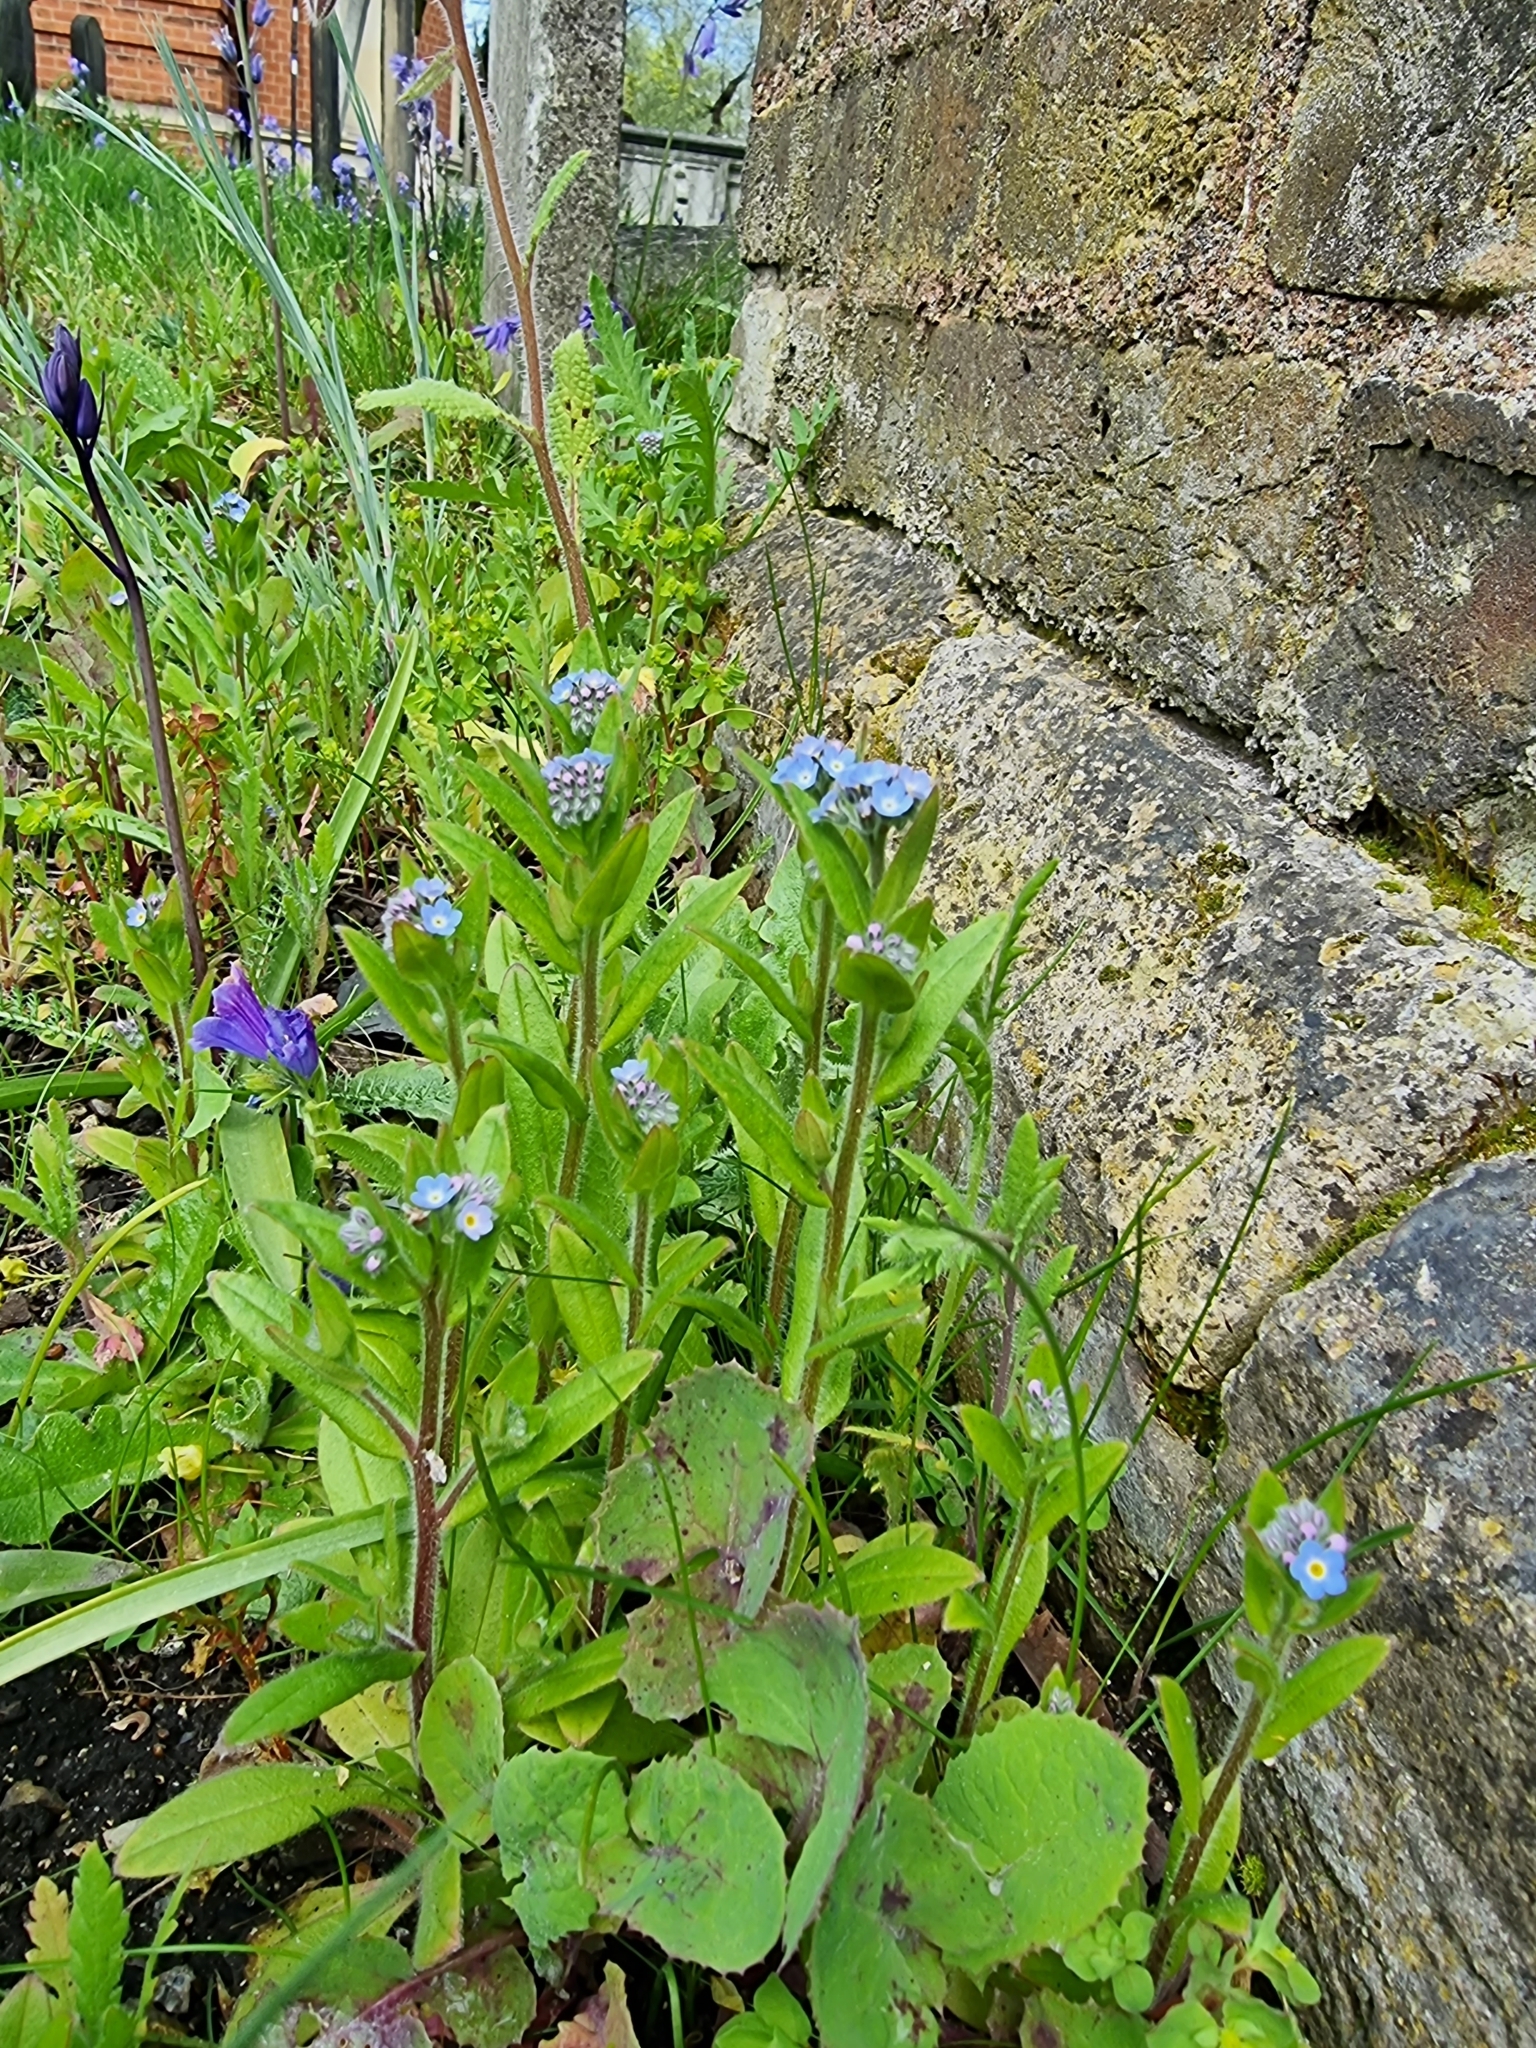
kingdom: Plantae
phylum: Tracheophyta
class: Magnoliopsida
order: Boraginales
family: Boraginaceae
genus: Myosotis
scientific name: Myosotis sylvatica
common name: Wood forget-me-not
